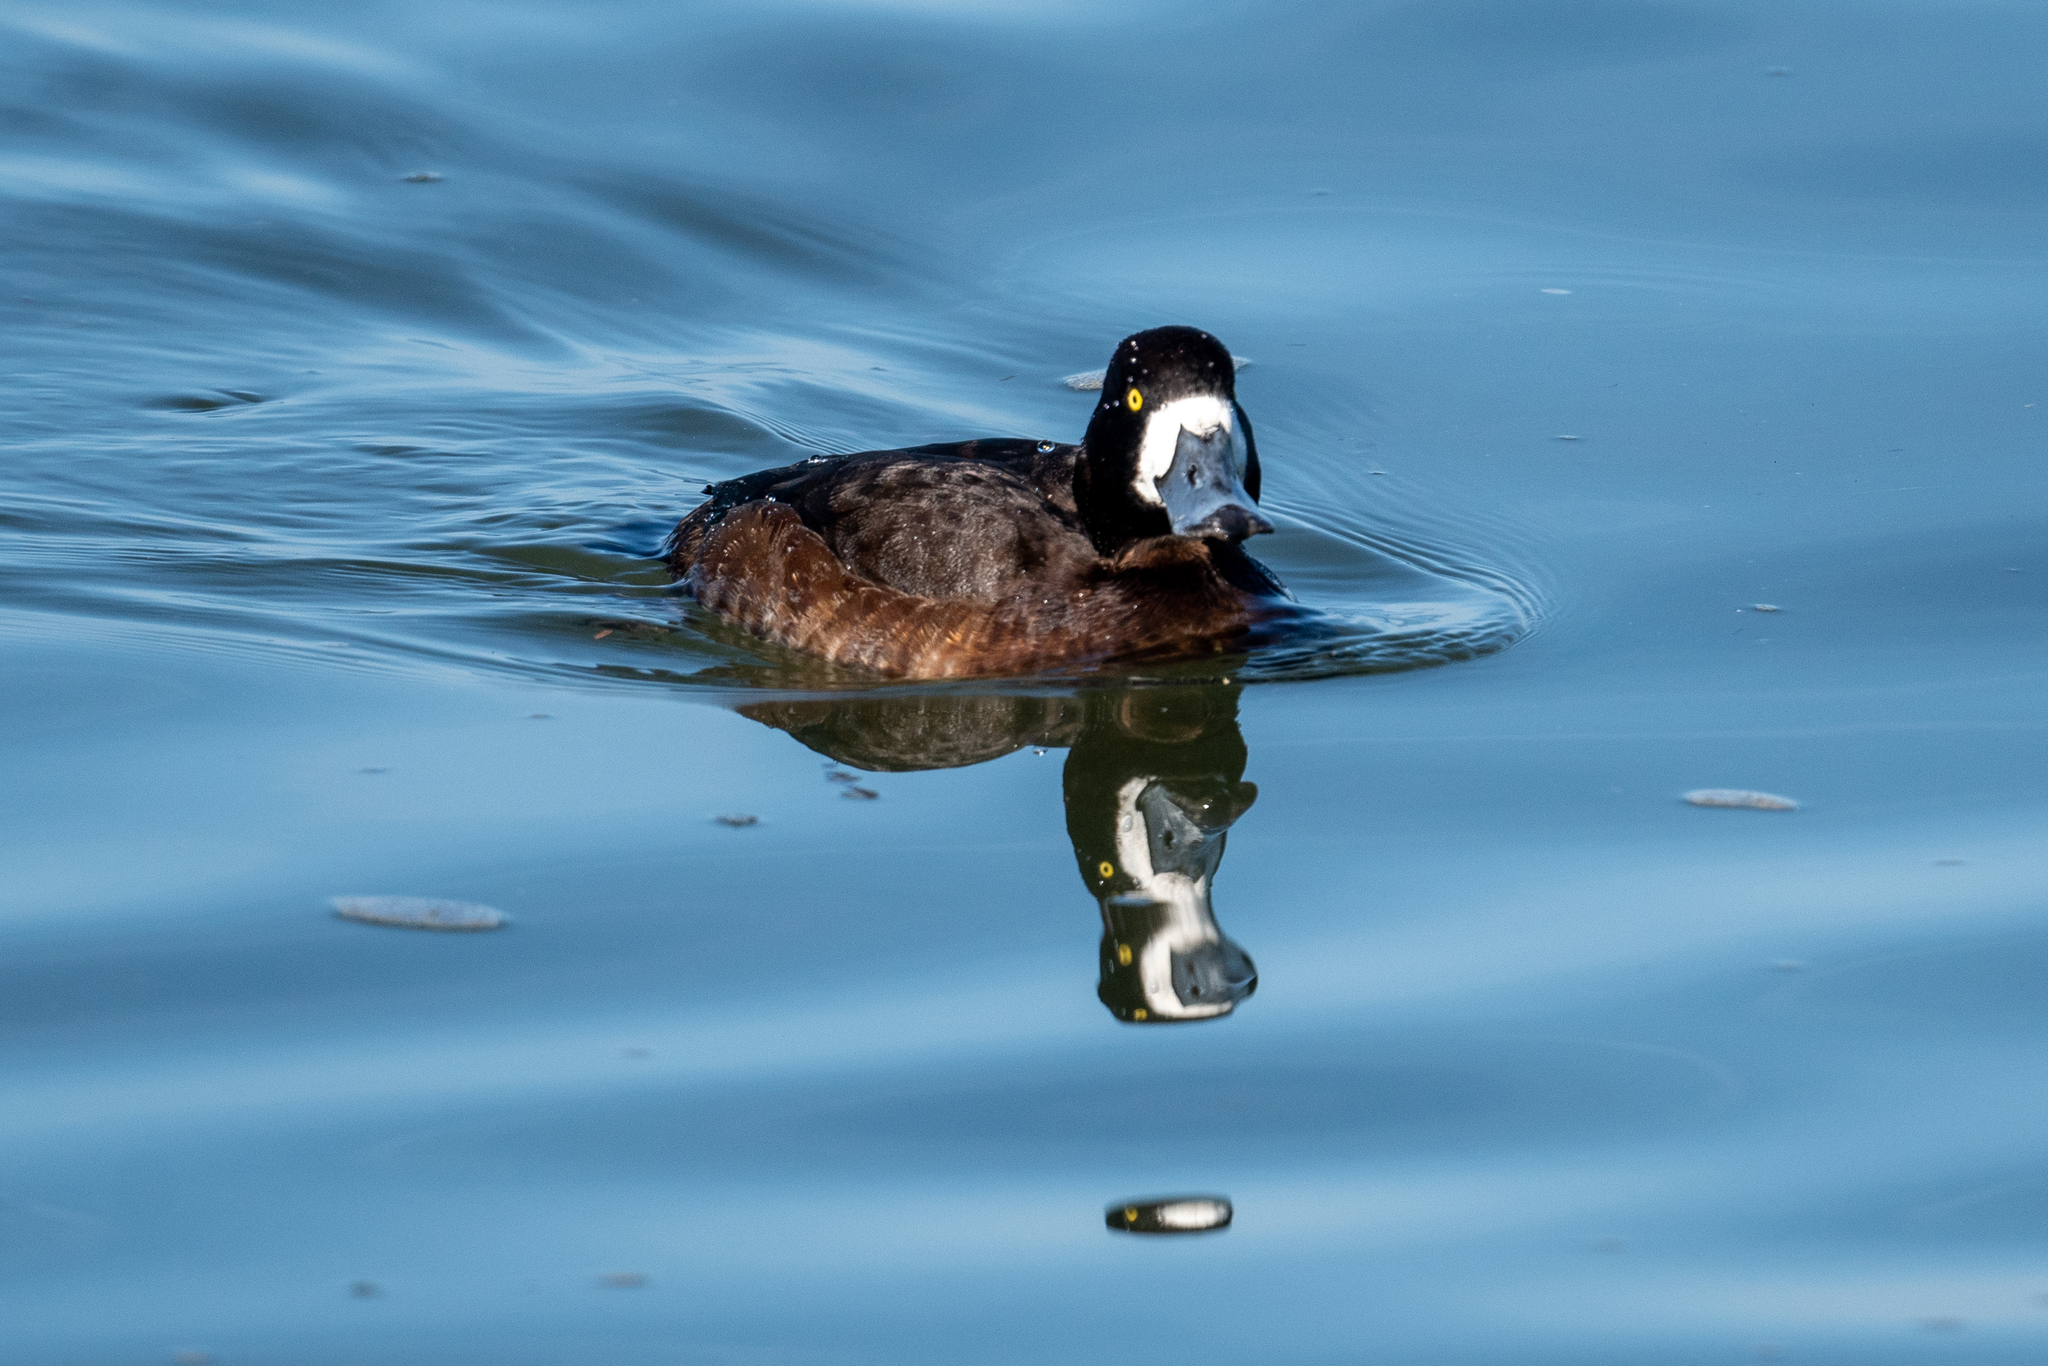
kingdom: Animalia
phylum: Chordata
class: Aves
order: Anseriformes
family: Anatidae
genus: Aythya
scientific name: Aythya marila
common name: Greater scaup
